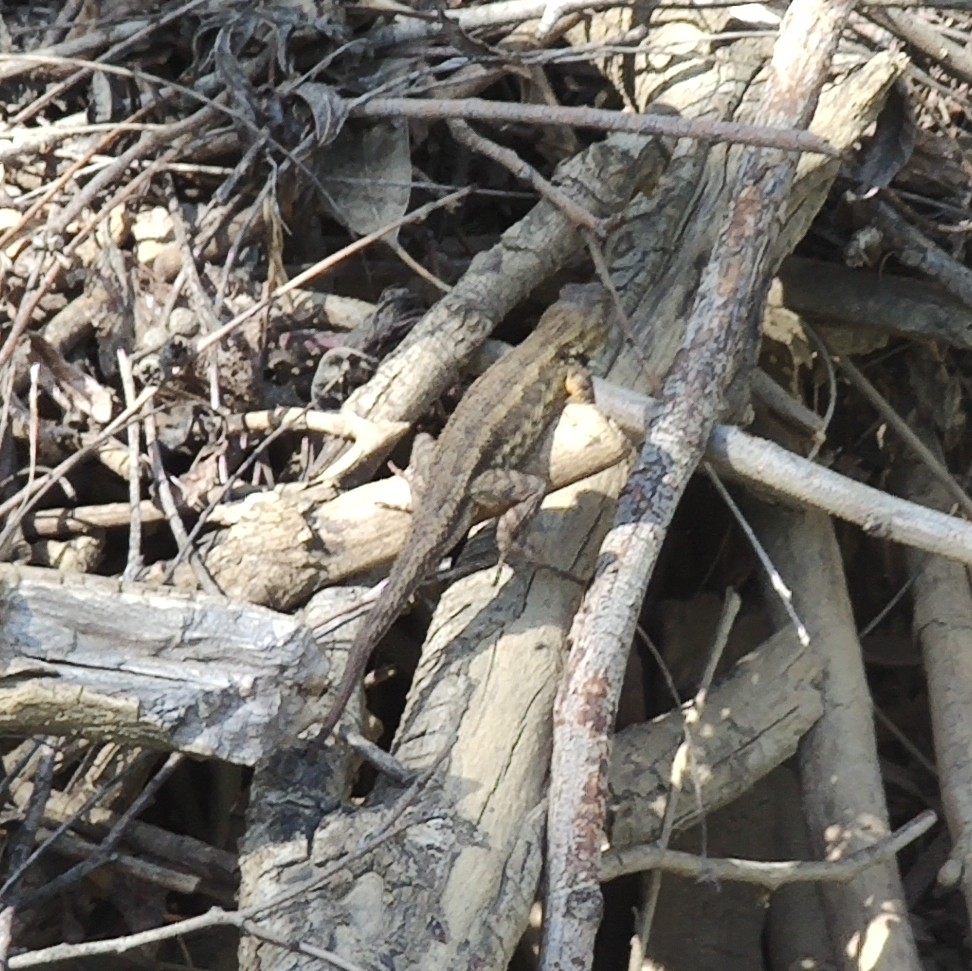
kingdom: Animalia
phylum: Chordata
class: Squamata
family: Phrynosomatidae
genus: Sceloporus
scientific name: Sceloporus occidentalis
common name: Western fence lizard
